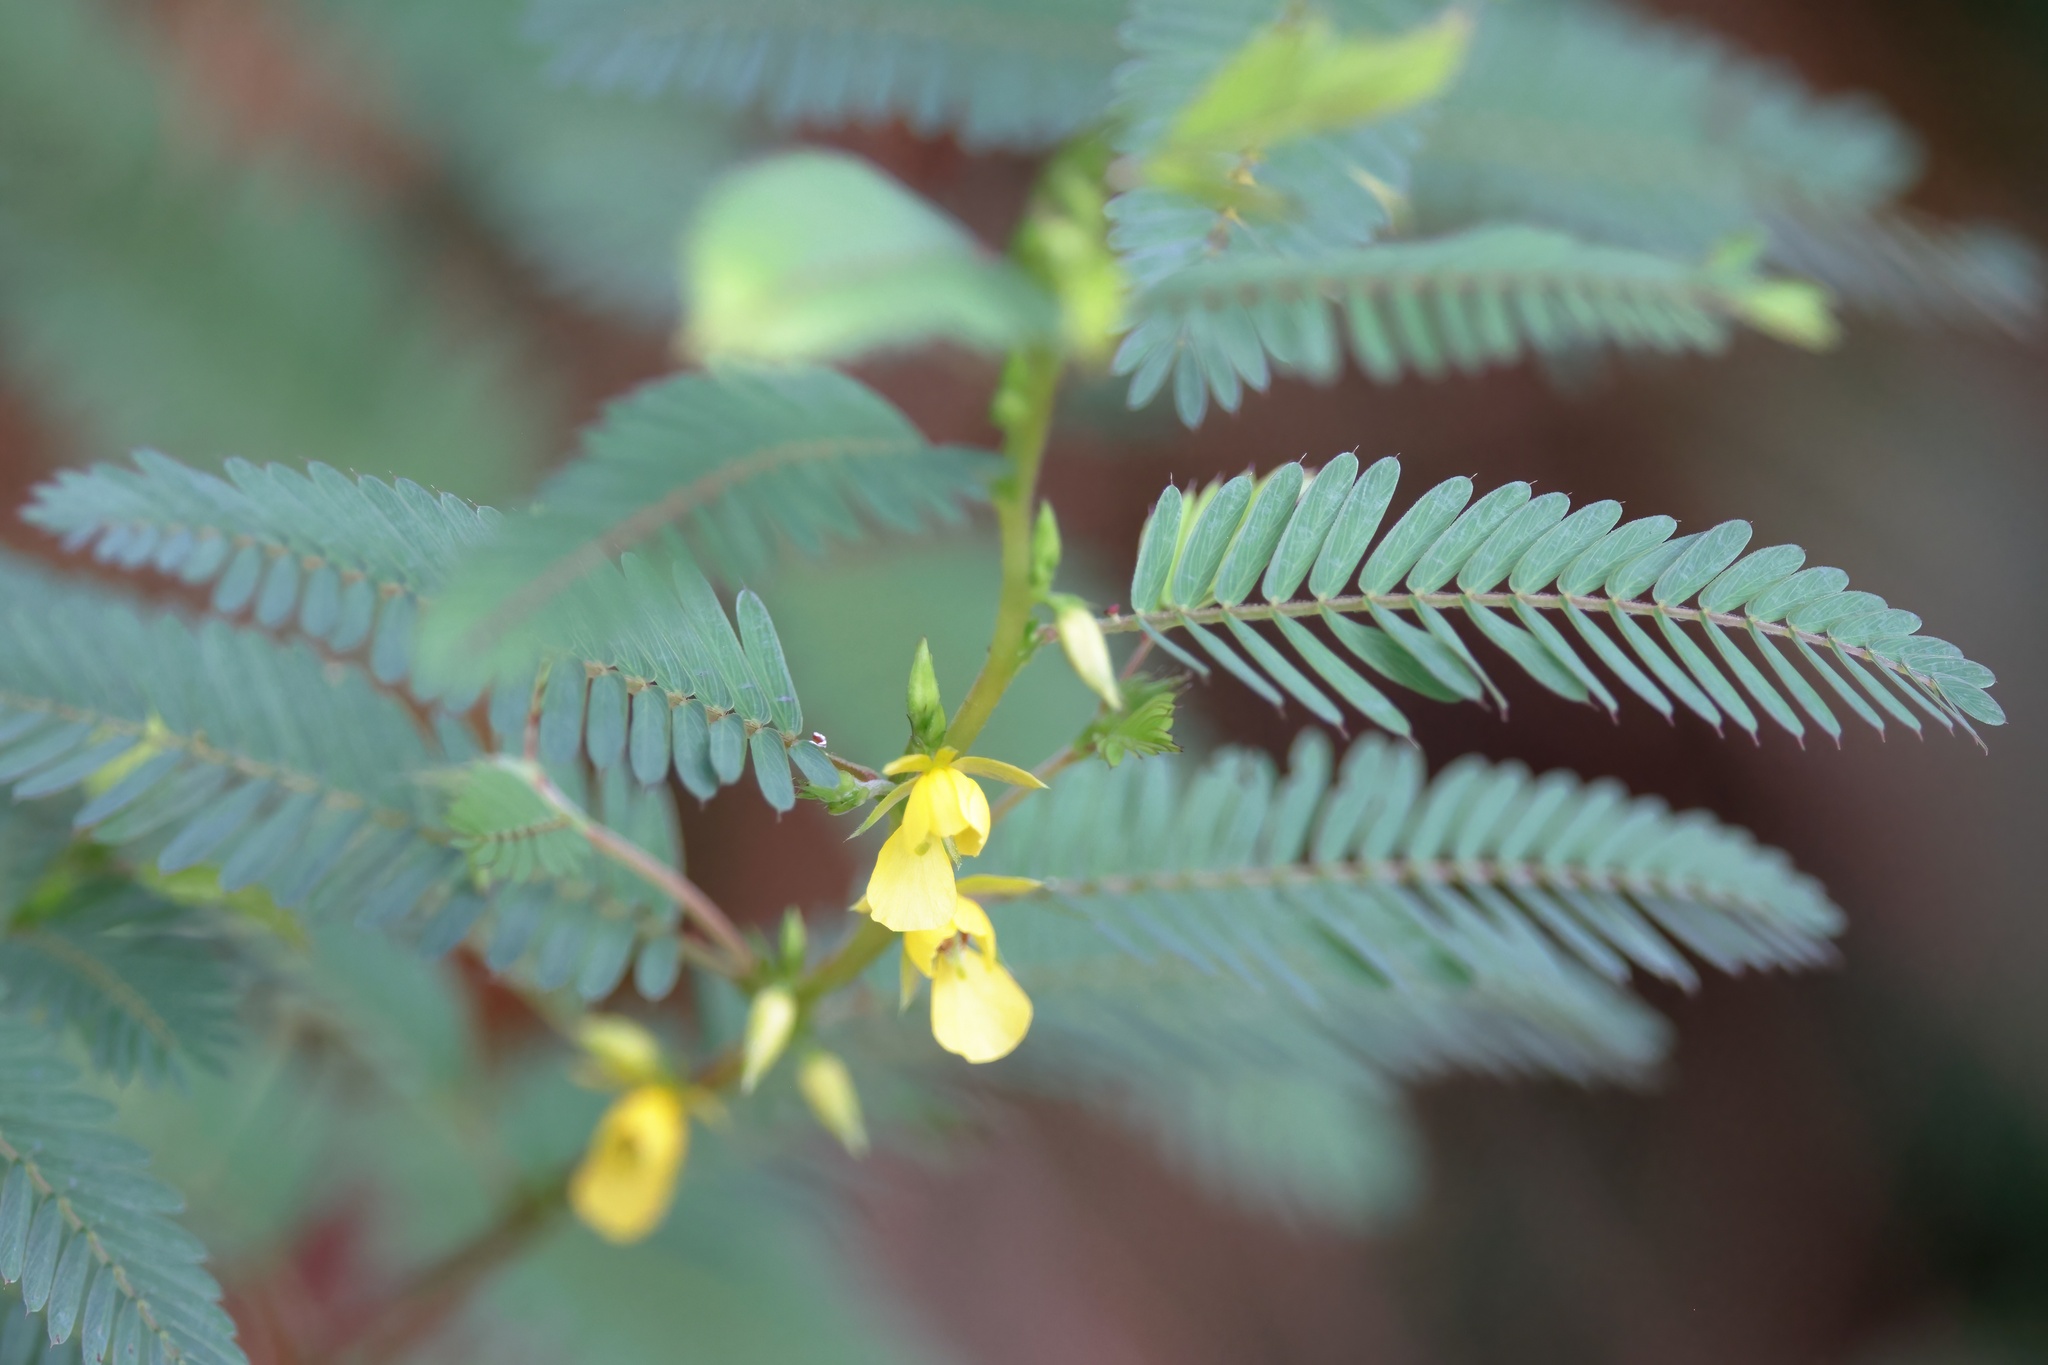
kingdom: Plantae
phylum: Tracheophyta
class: Magnoliopsida
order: Fabales
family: Fabaceae
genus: Chamaecrista
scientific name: Chamaecrista nictitans
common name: Sensitive cassia
